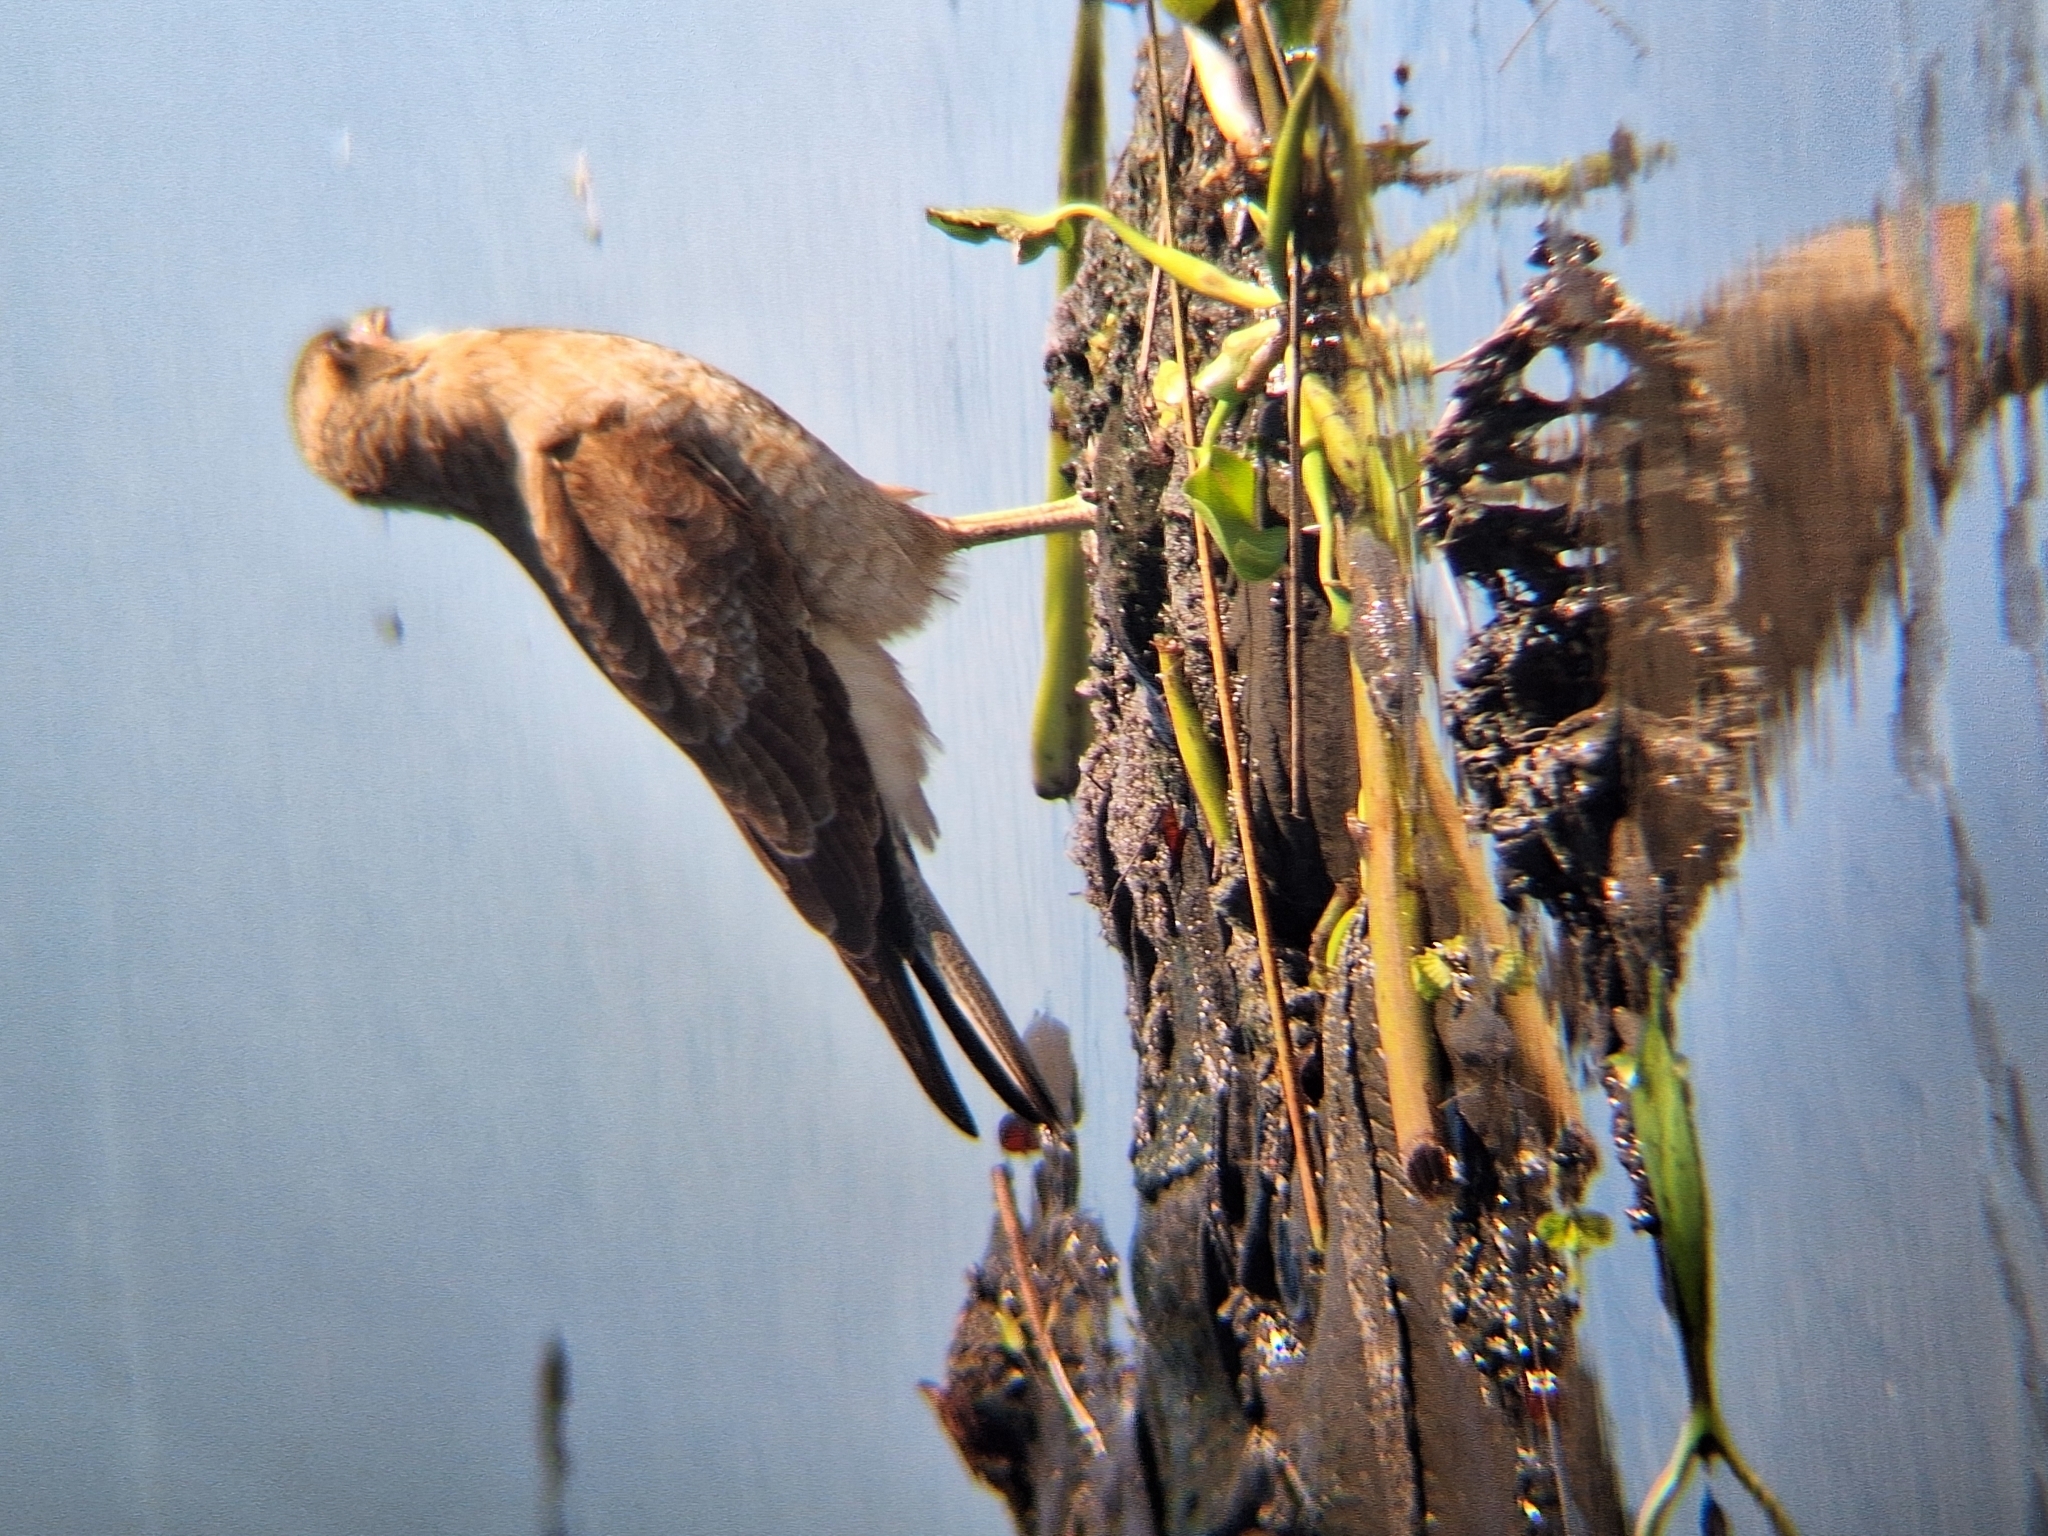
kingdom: Animalia
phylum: Chordata
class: Aves
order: Falconiformes
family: Falconidae
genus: Daptrius
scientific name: Daptrius
